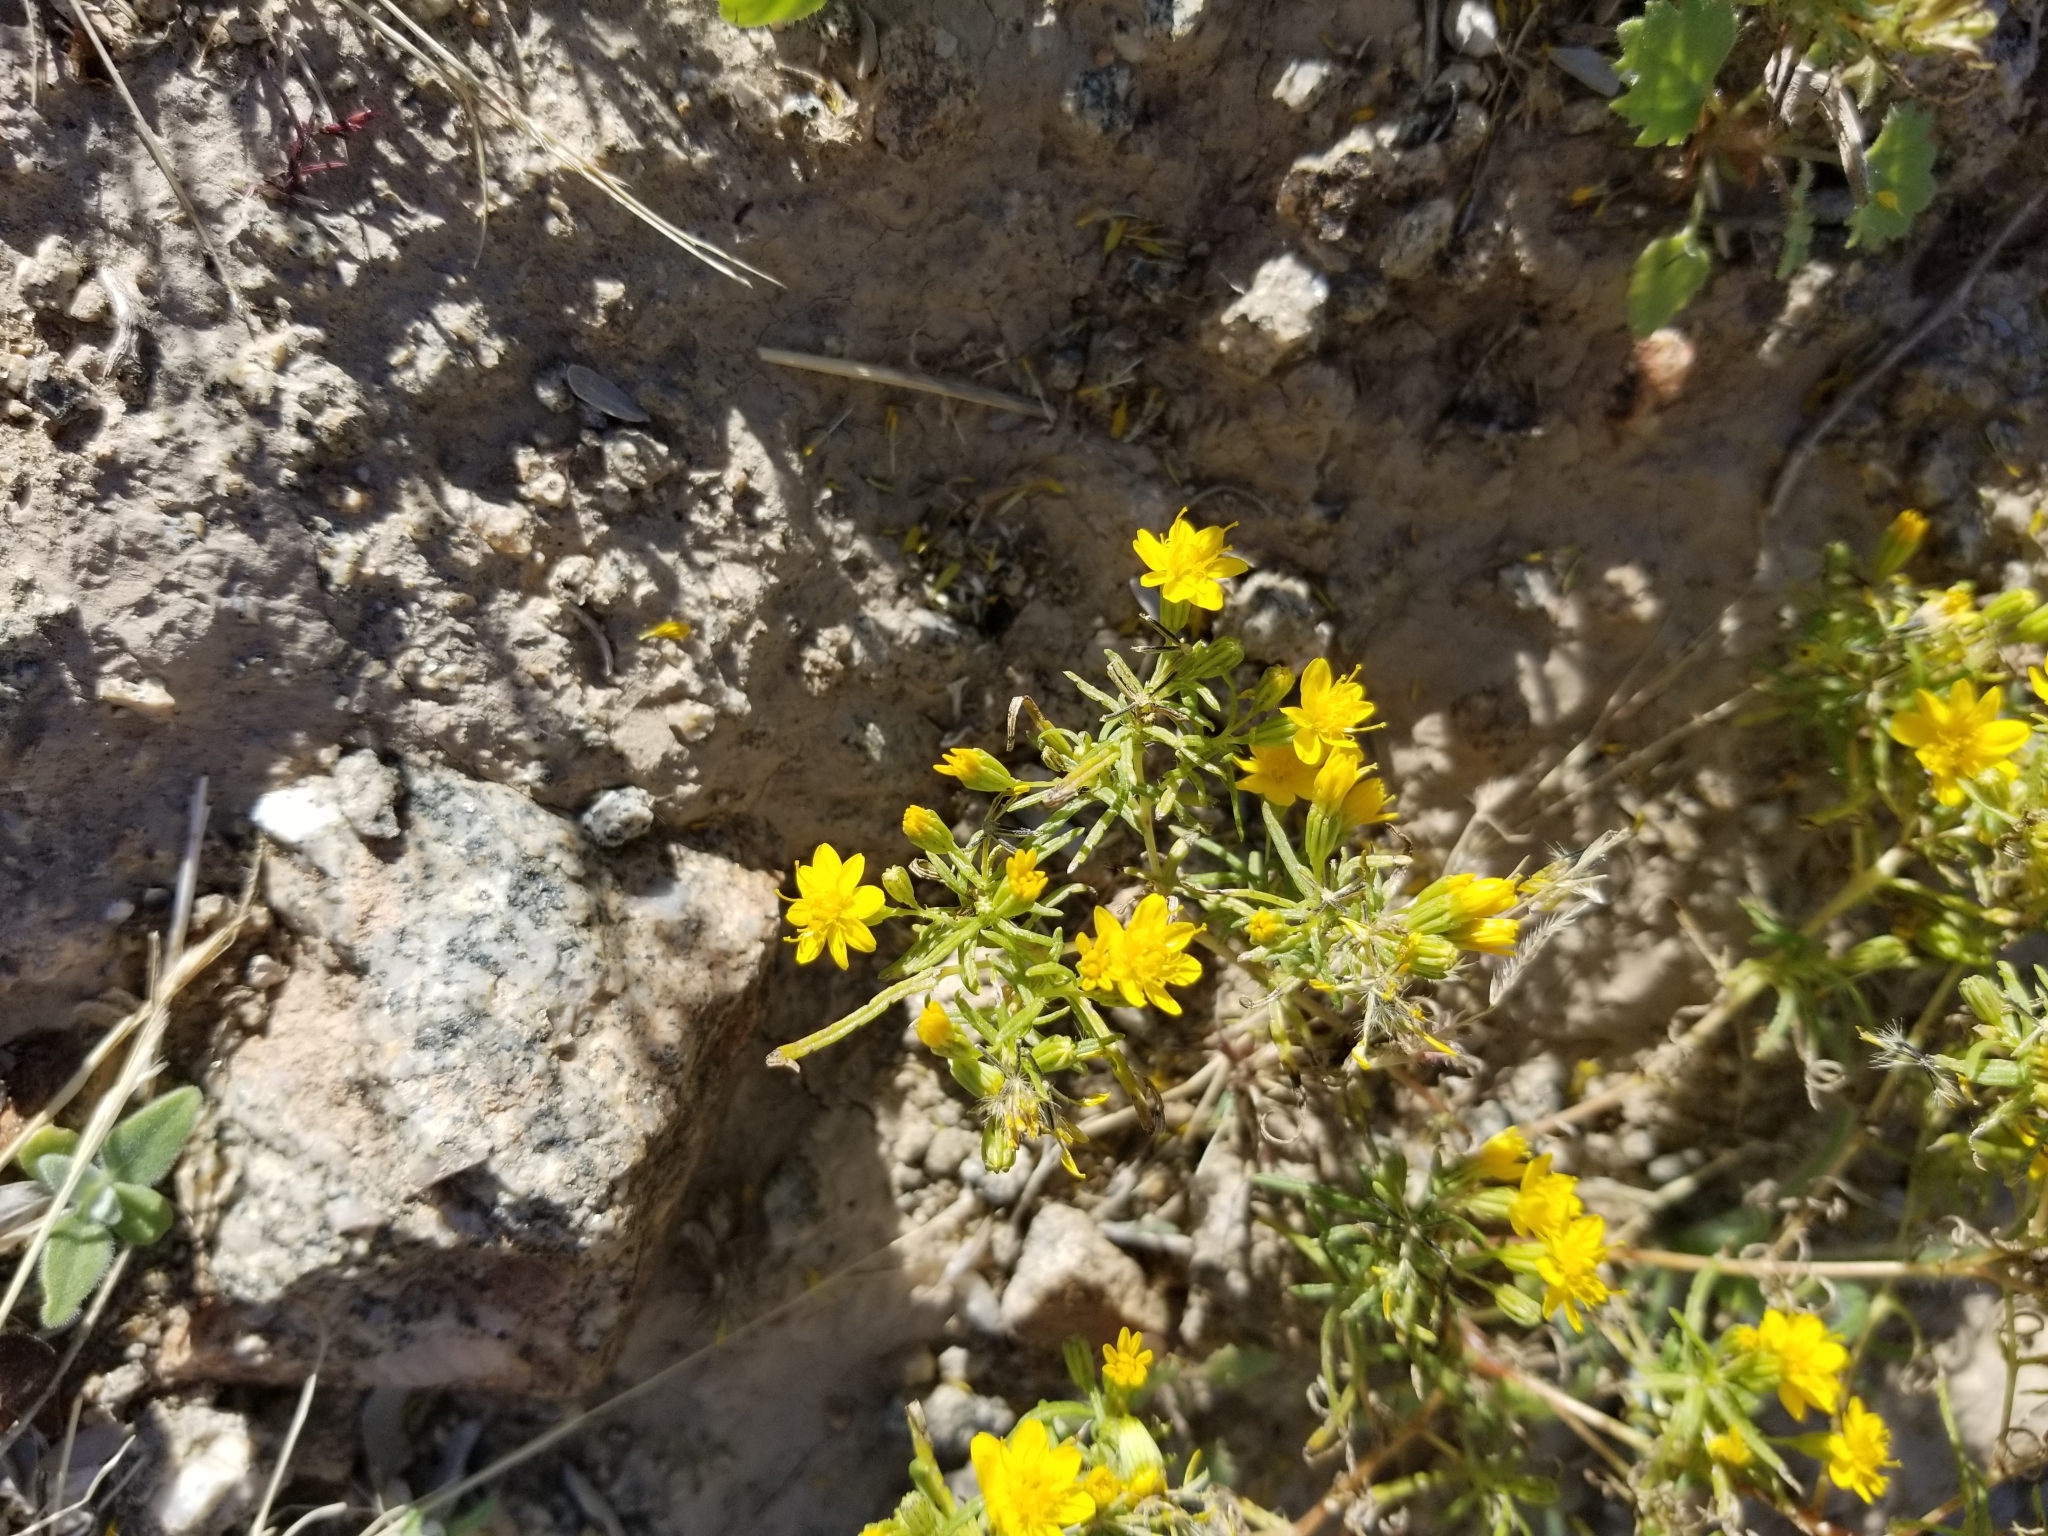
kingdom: Plantae
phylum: Tracheophyta
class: Magnoliopsida
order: Asterales
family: Asteraceae
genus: Pectis
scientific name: Pectis papposa
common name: Many-bristle chinchweed
